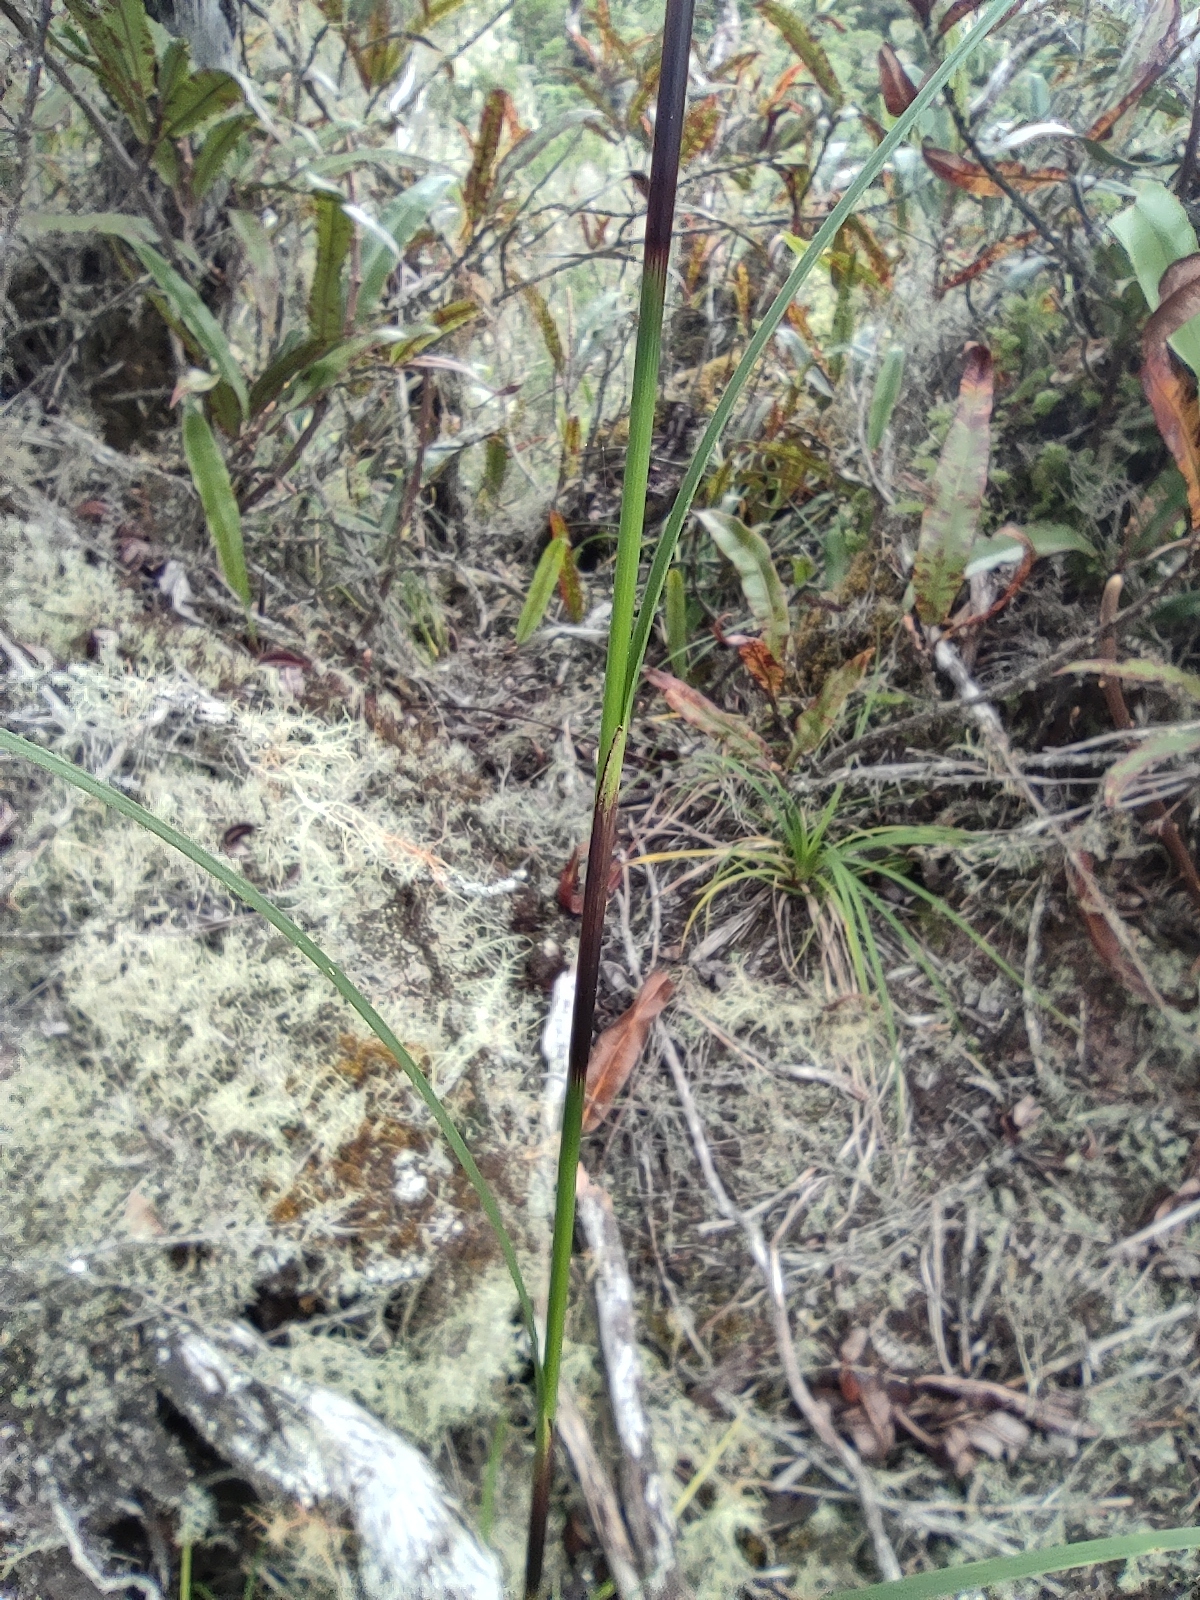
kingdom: Plantae
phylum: Tracheophyta
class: Liliopsida
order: Poales
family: Cyperaceae
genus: Costularia
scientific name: Costularia melicoides
